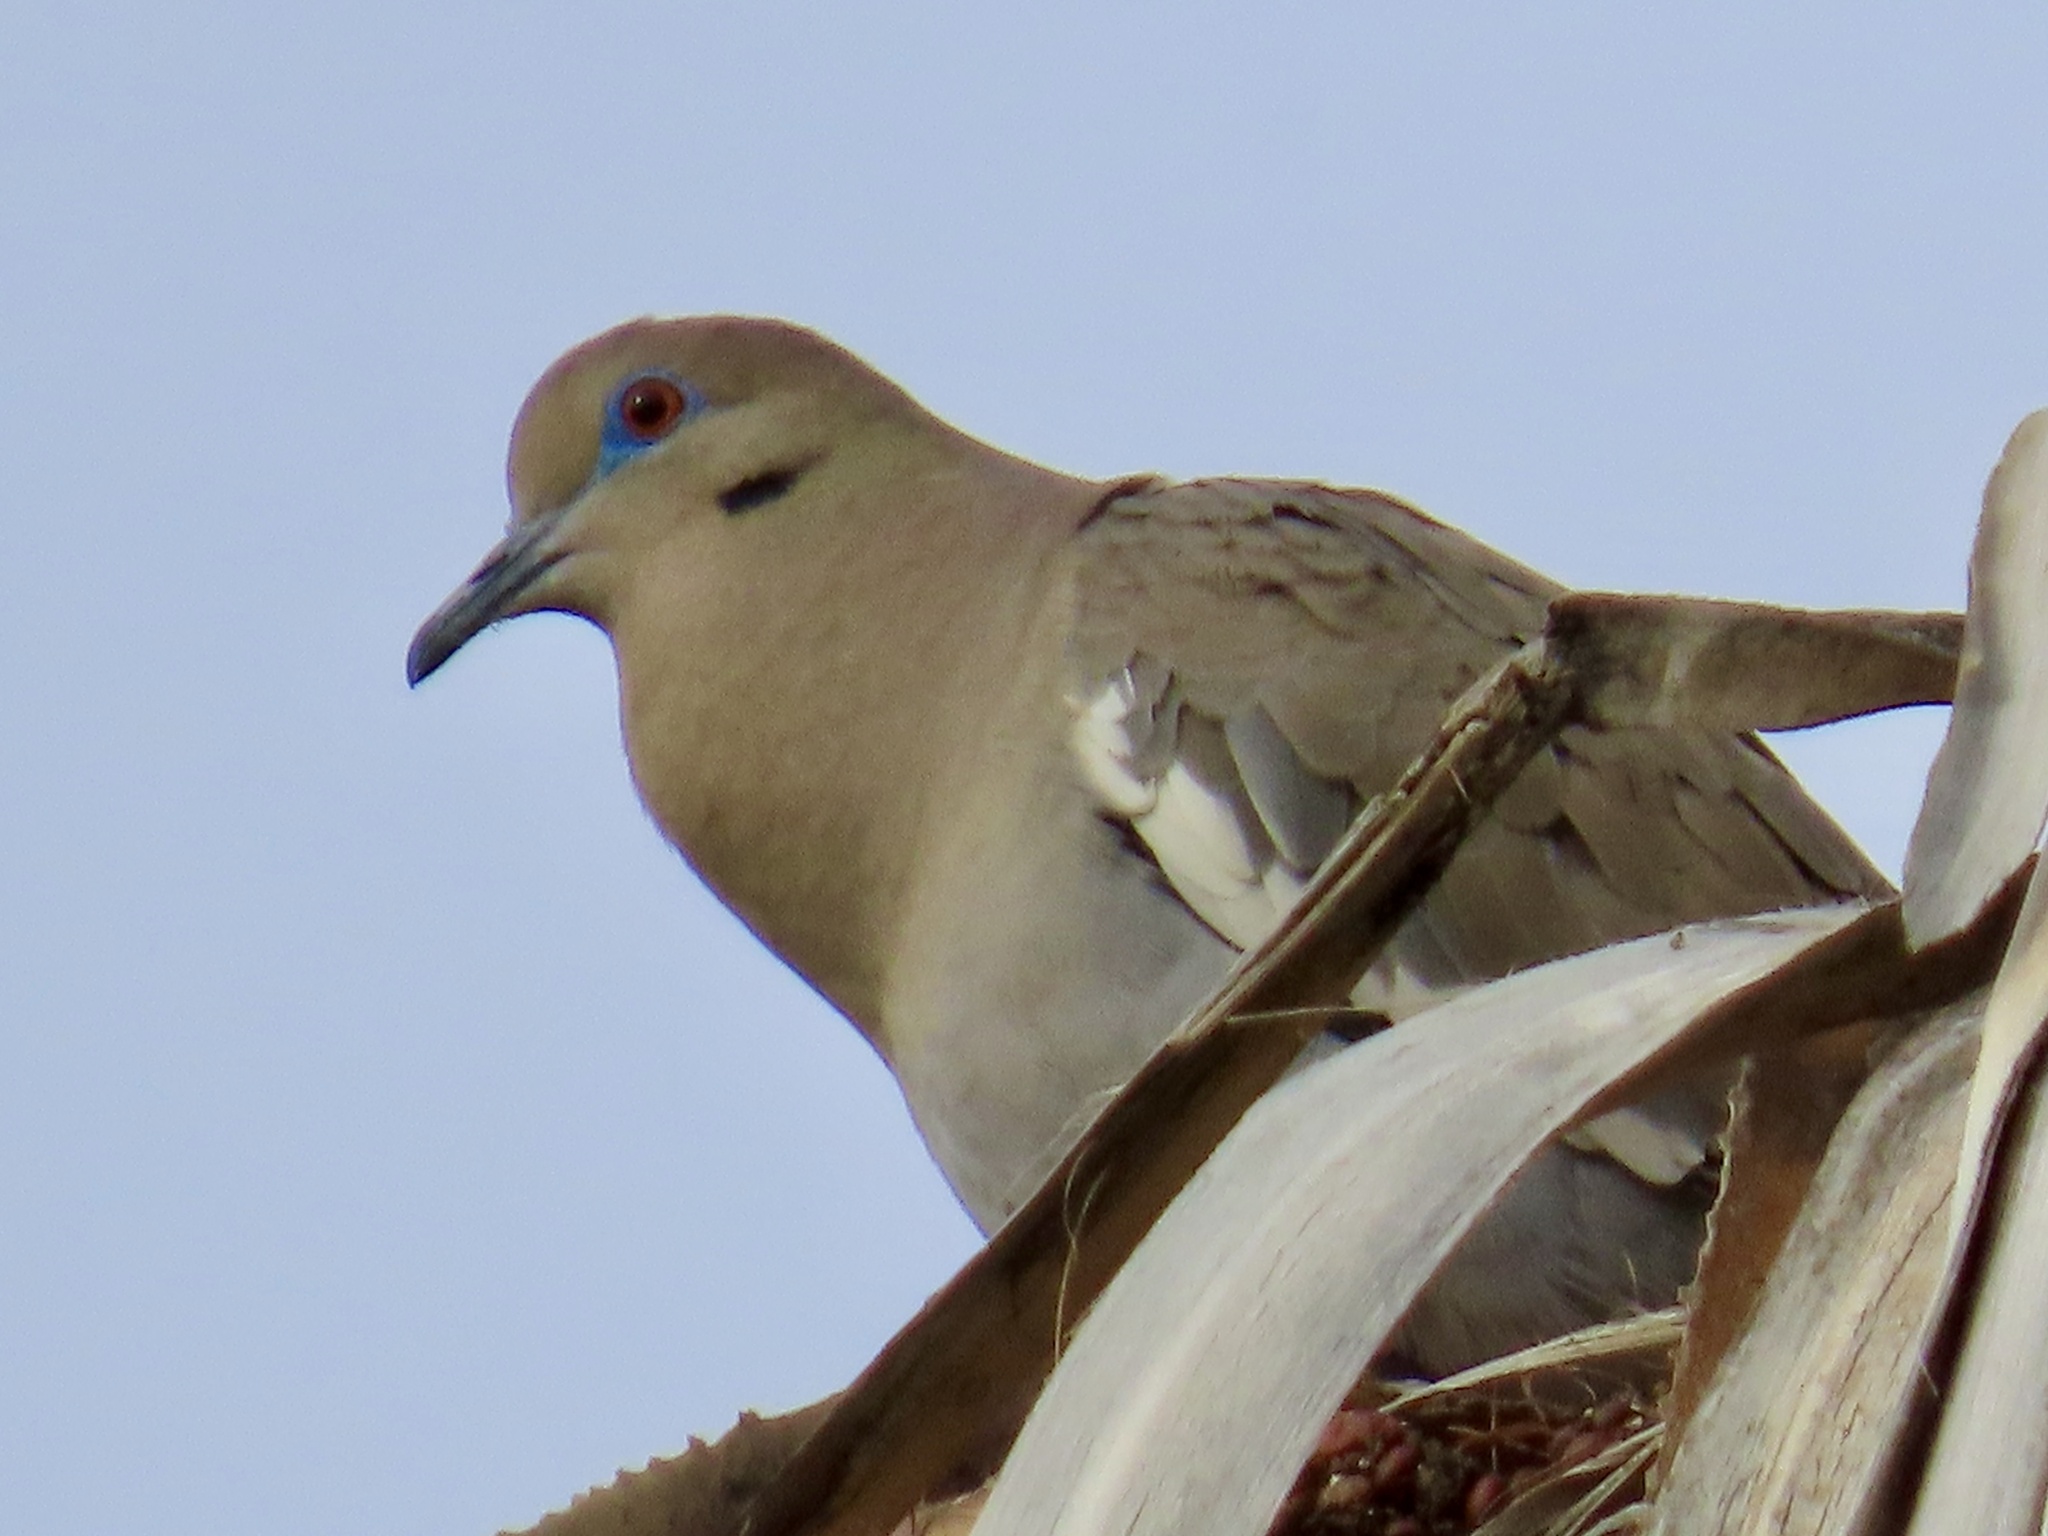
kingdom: Animalia
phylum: Chordata
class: Aves
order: Columbiformes
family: Columbidae
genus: Zenaida
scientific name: Zenaida asiatica
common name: White-winged dove
